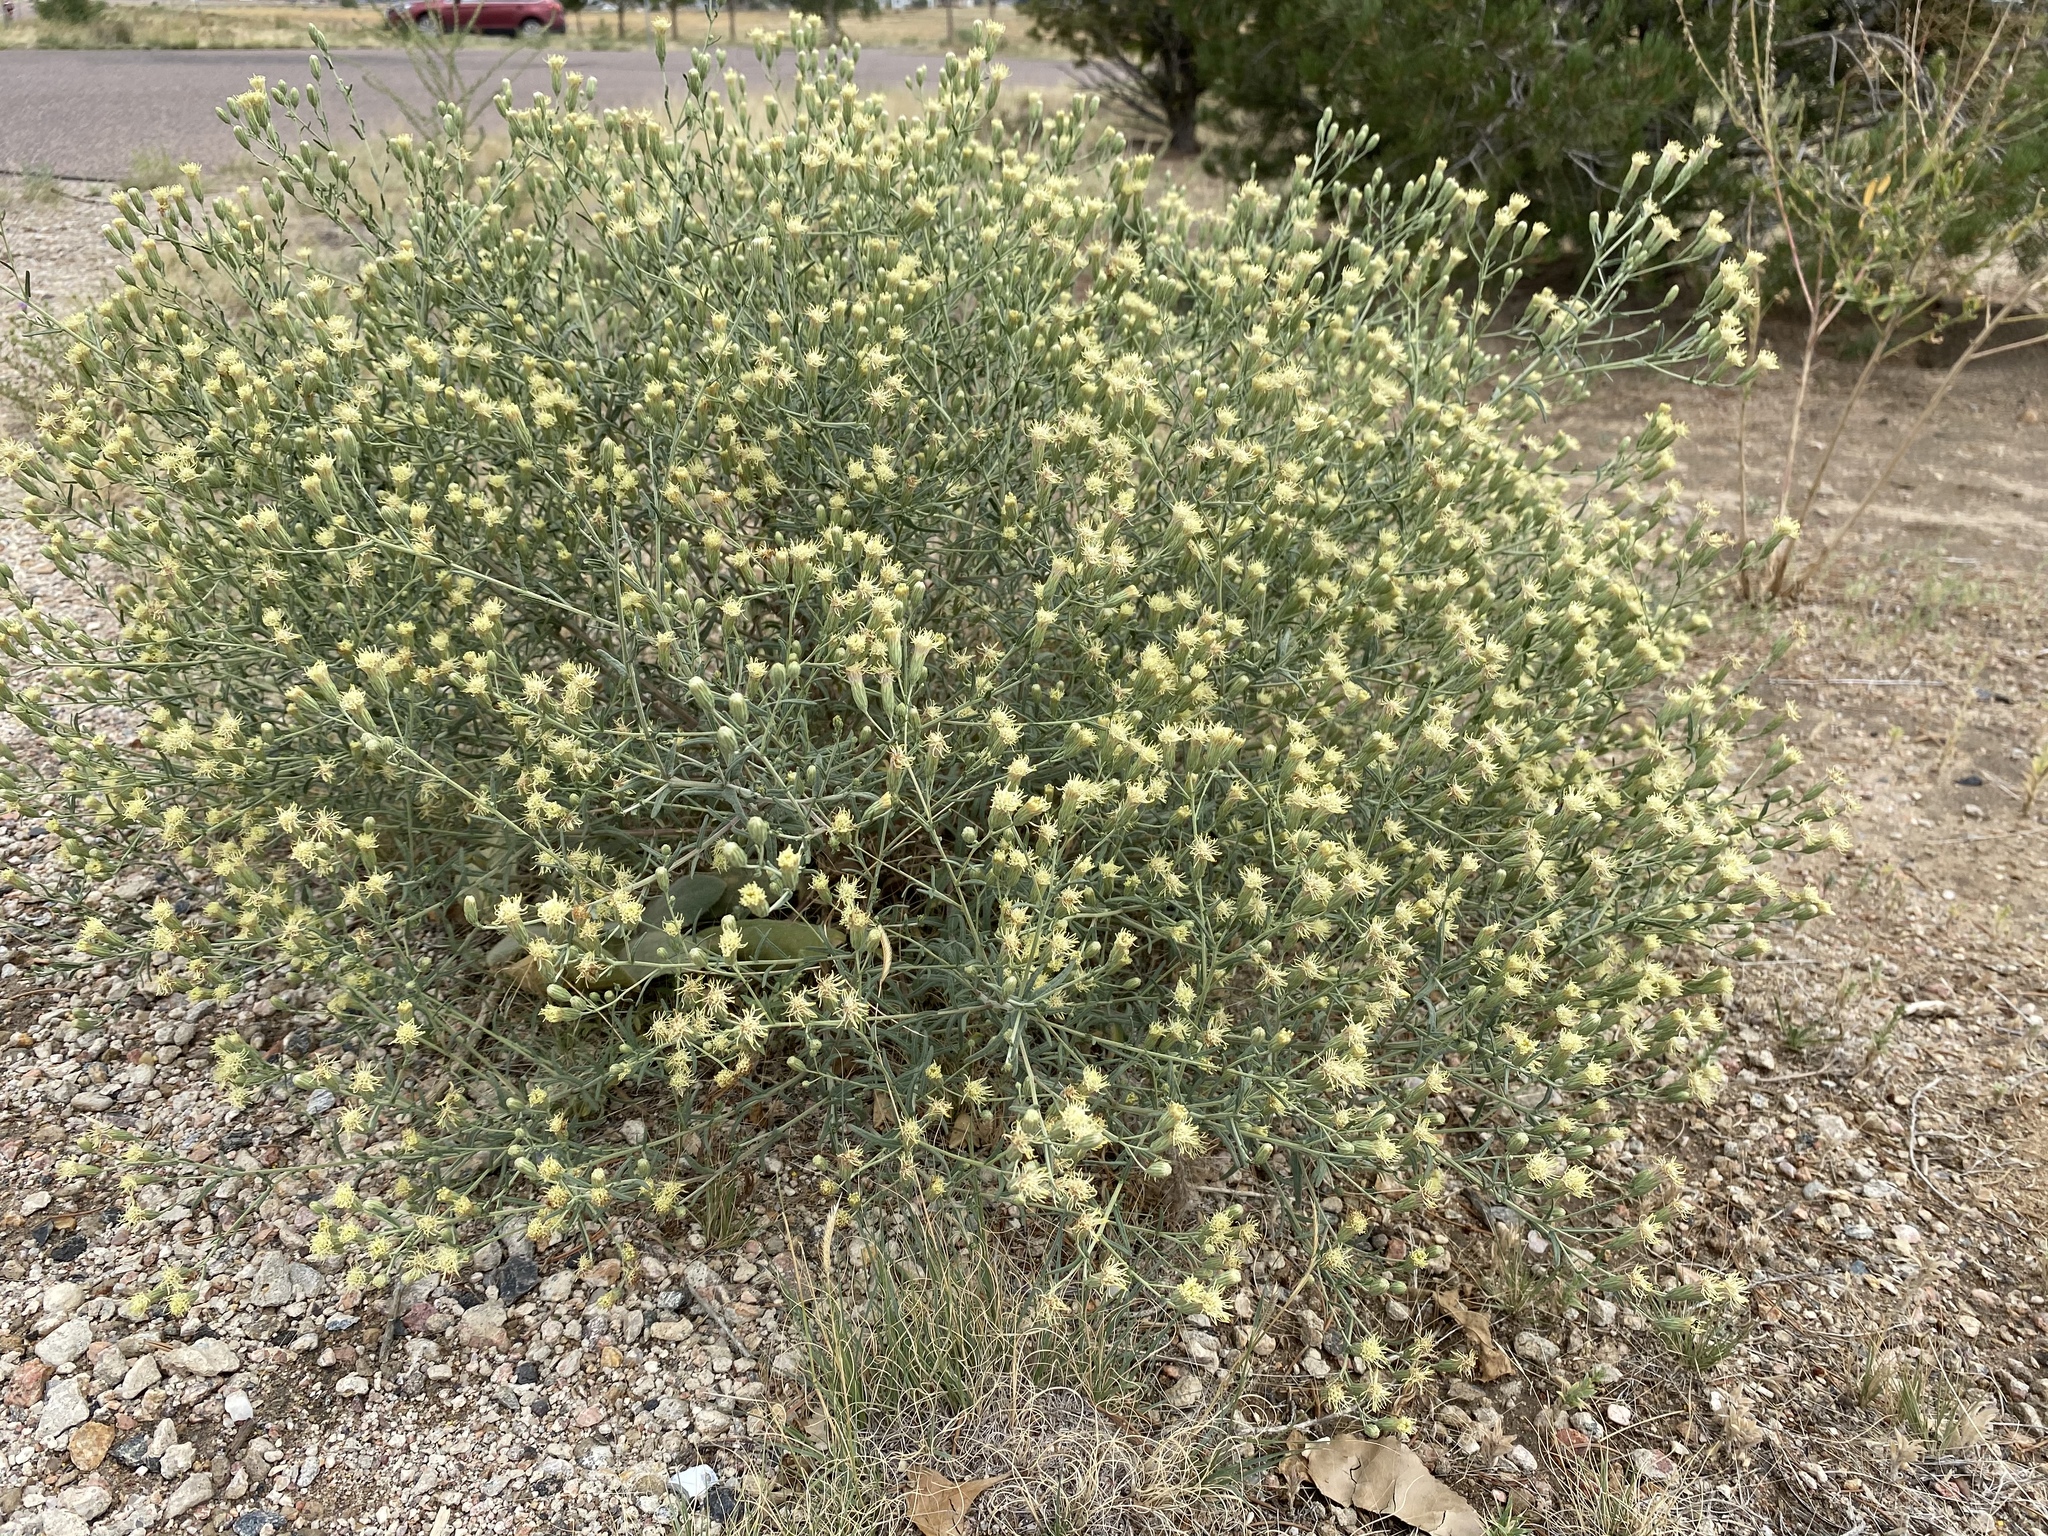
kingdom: Plantae
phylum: Tracheophyta
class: Magnoliopsida
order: Asterales
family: Asteraceae
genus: Brickellia
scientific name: Brickellia eupatorioides
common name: False boneset
